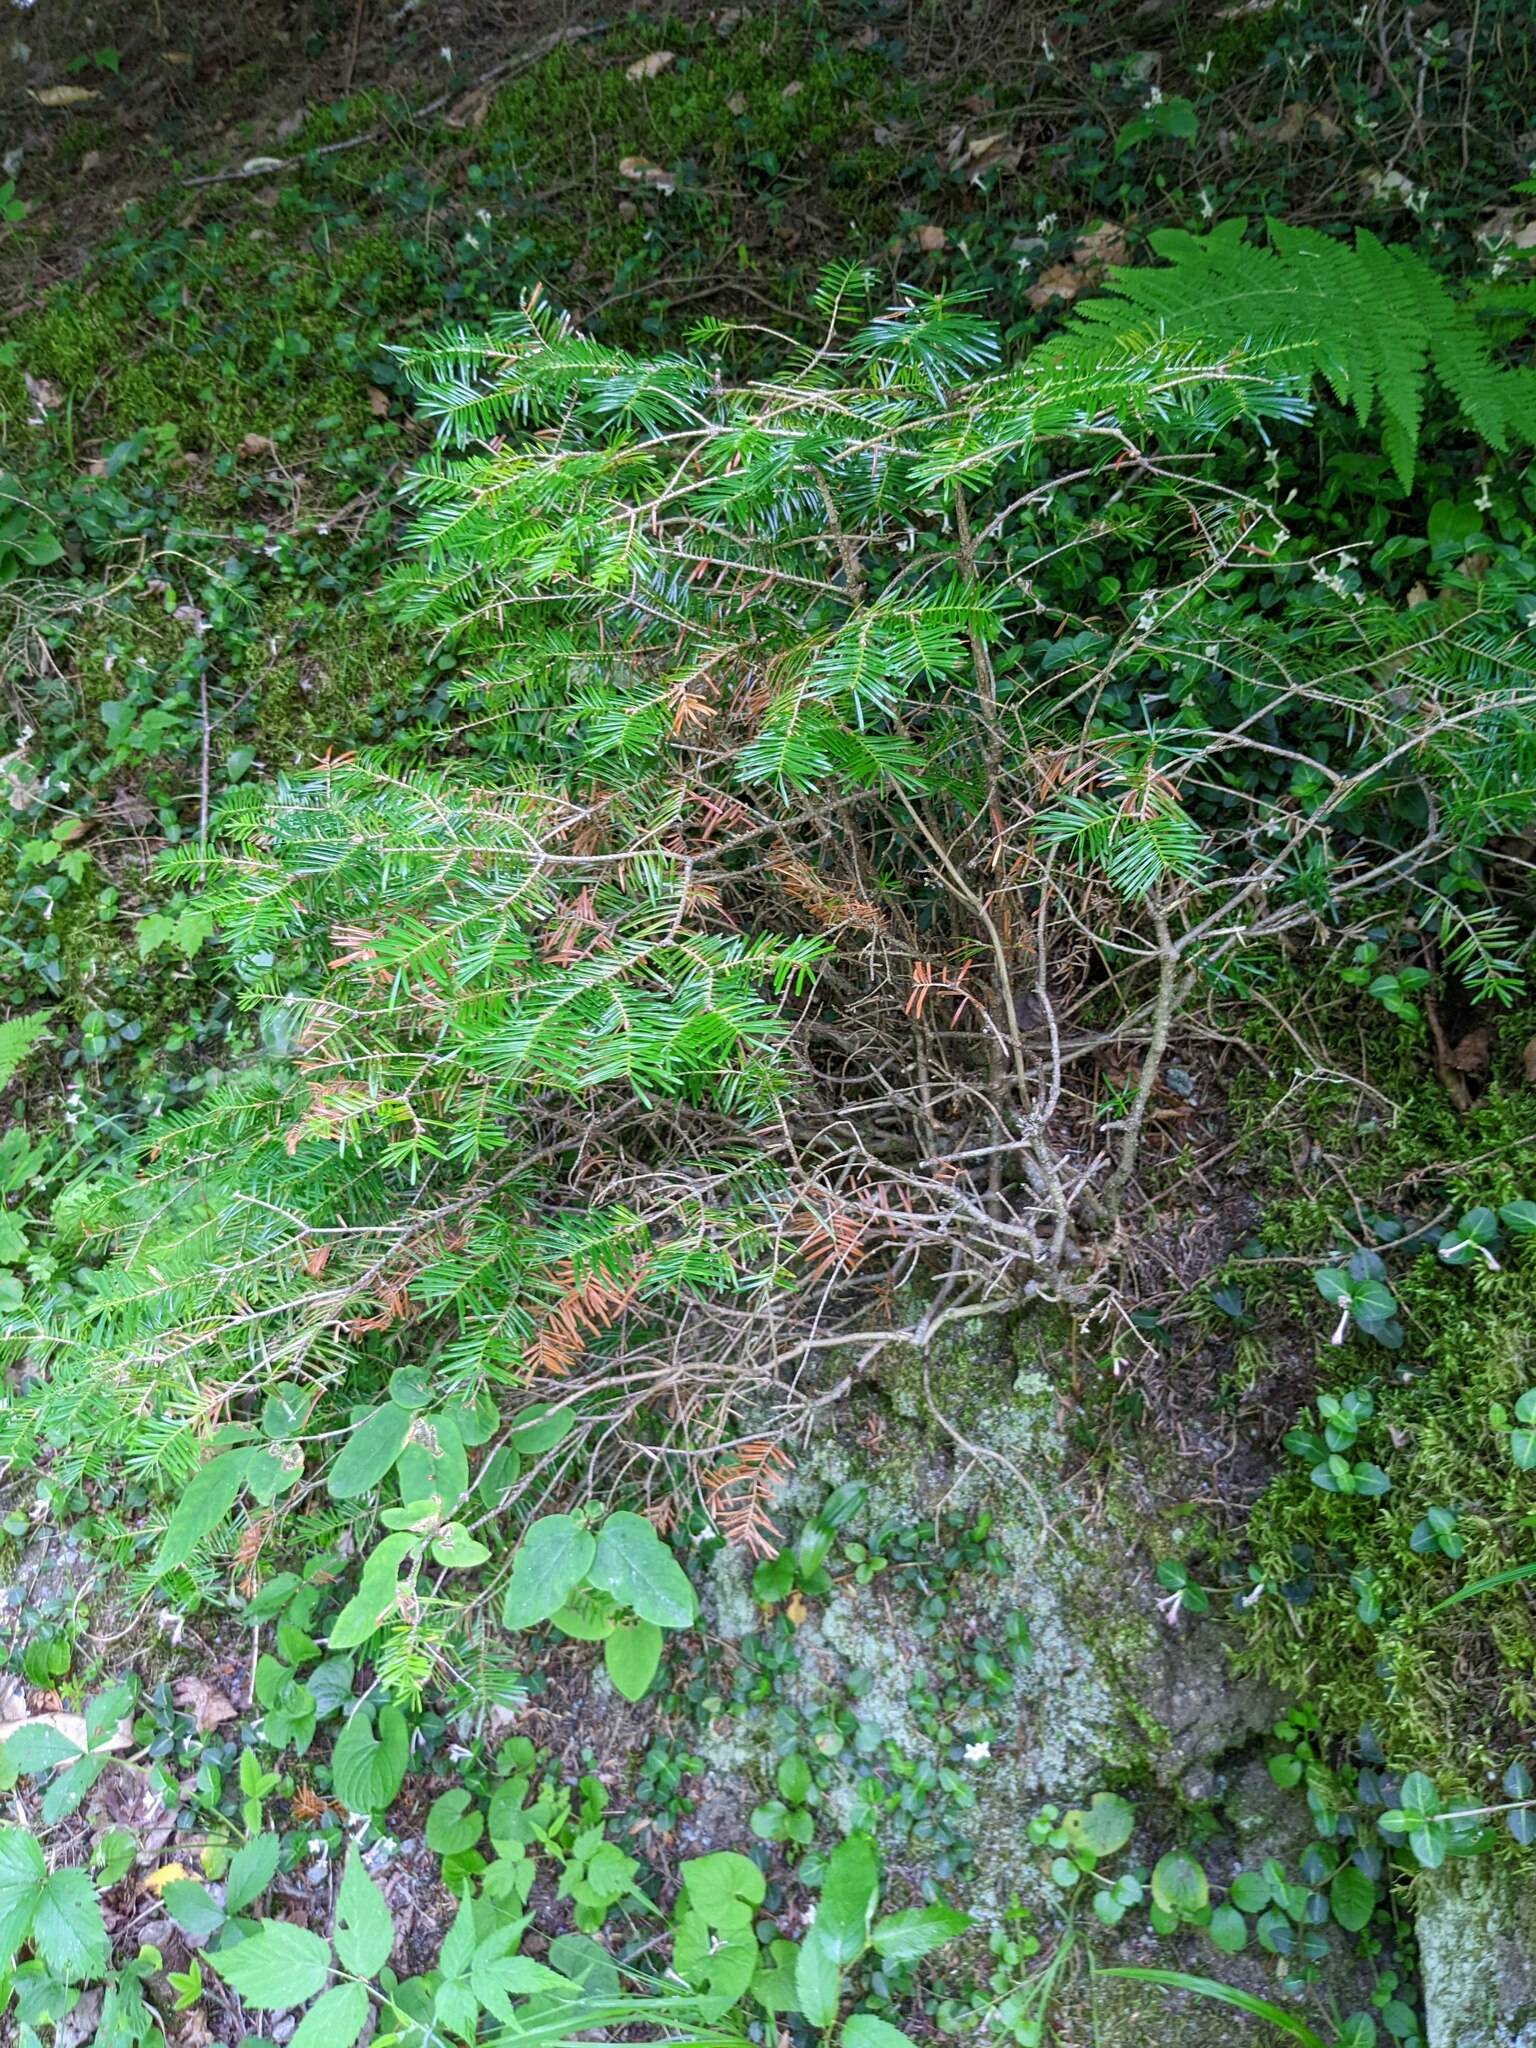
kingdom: Plantae
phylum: Tracheophyta
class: Pinopsida
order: Pinales
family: Pinaceae
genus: Abies
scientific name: Abies balsamea
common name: Balsam fir
